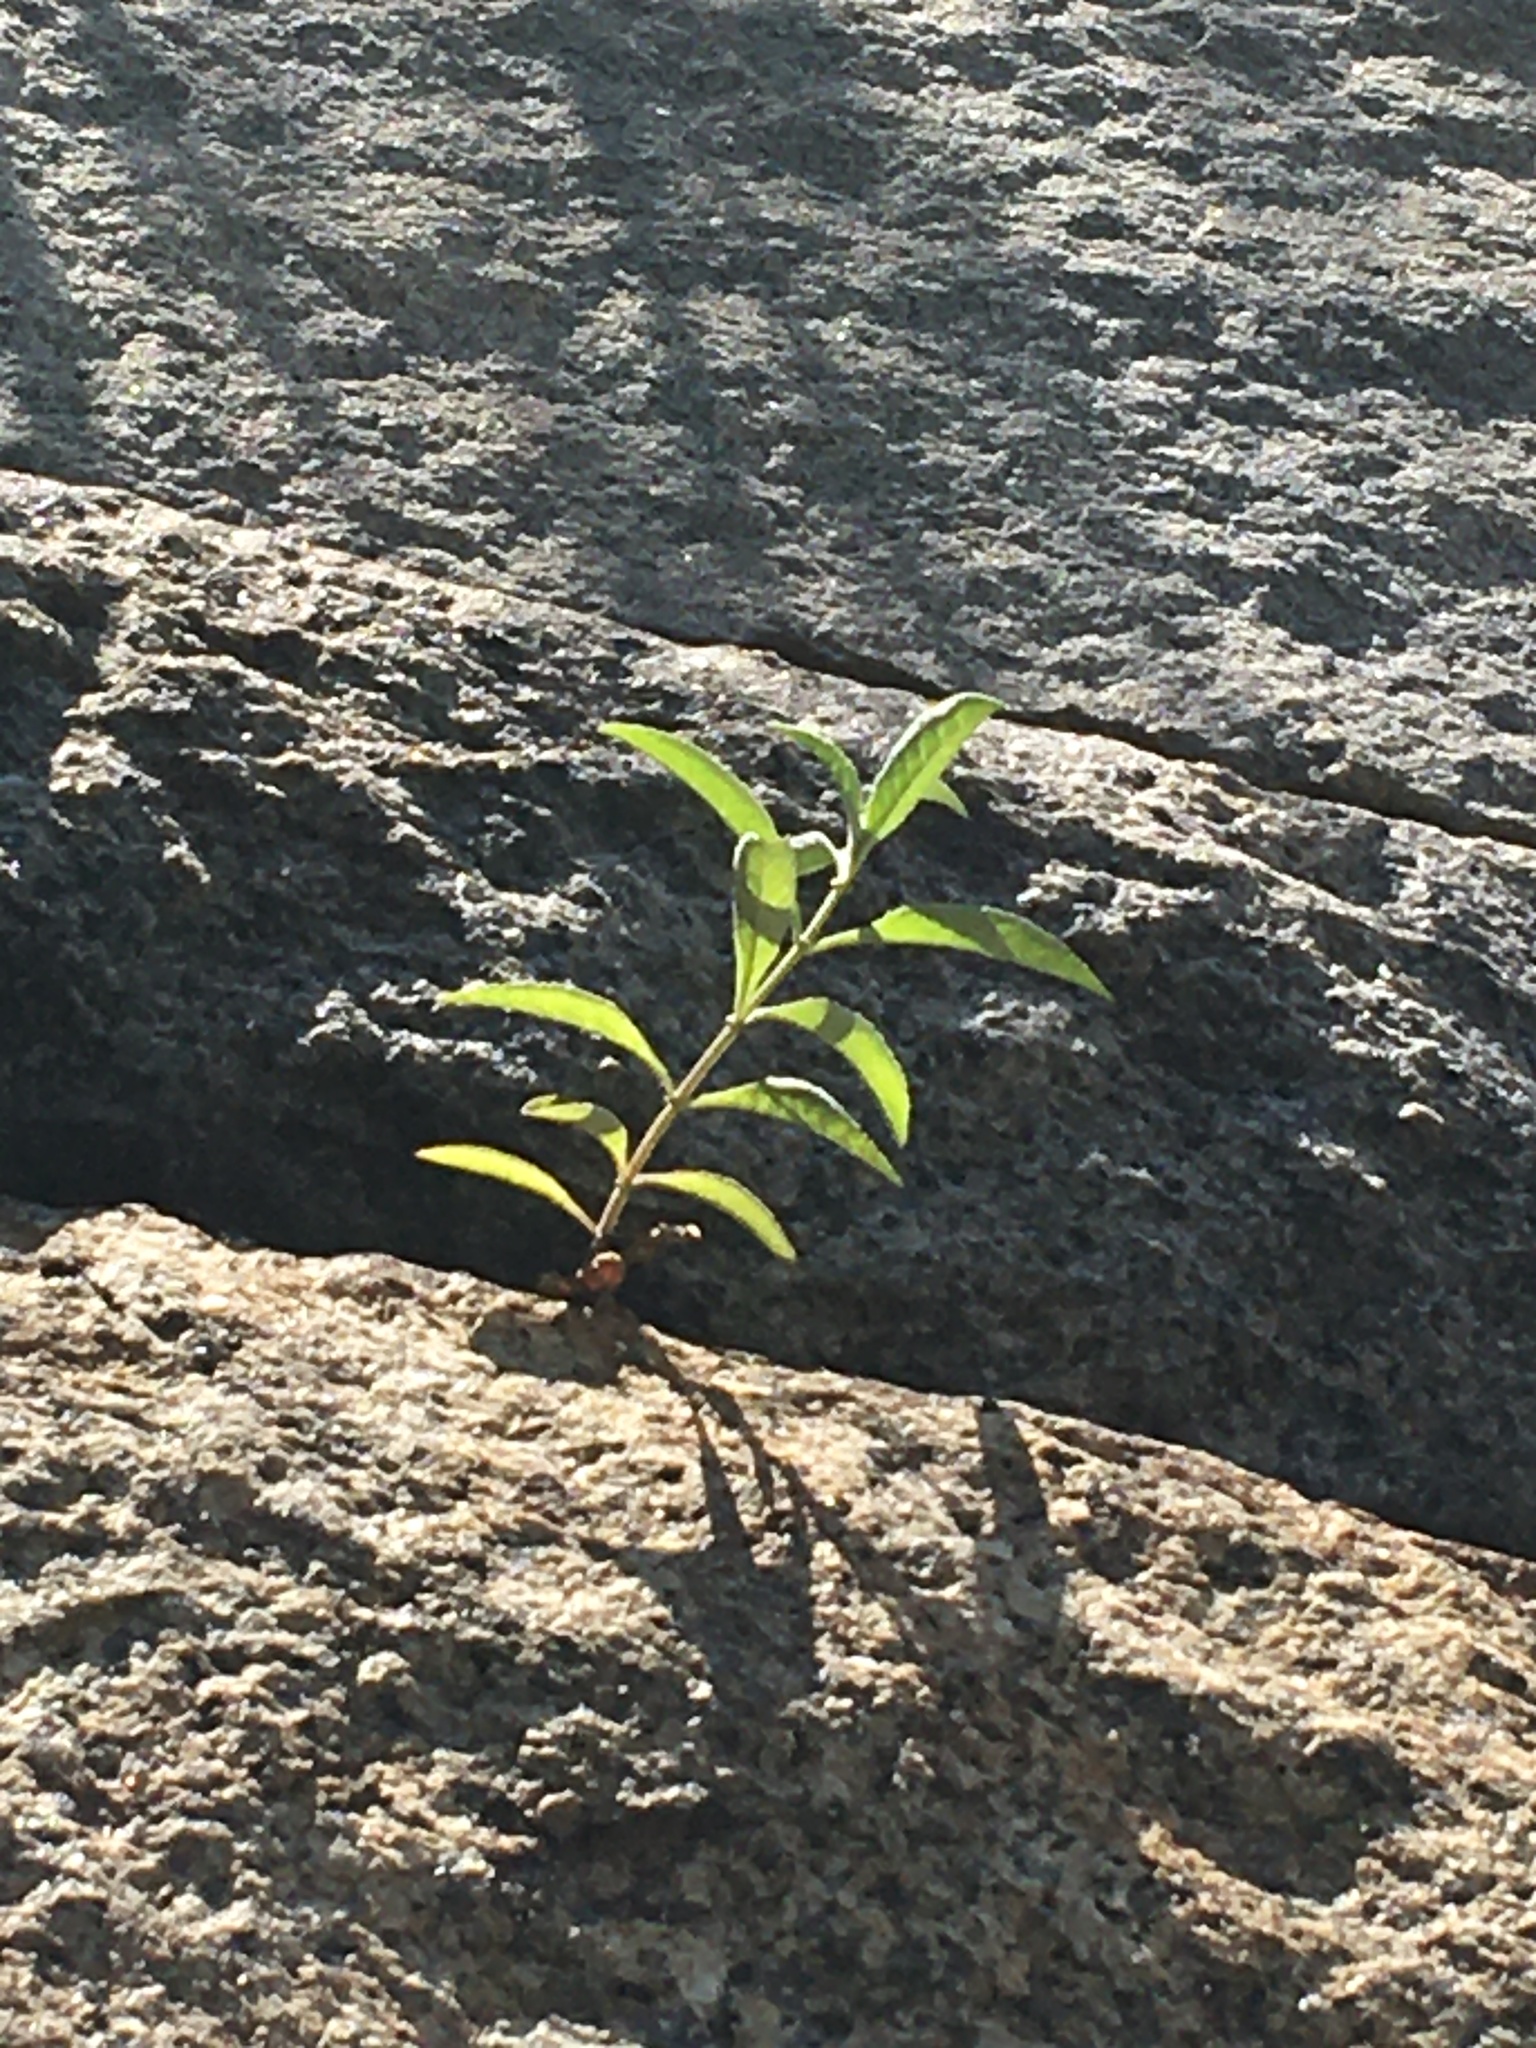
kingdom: Plantae
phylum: Tracheophyta
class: Magnoliopsida
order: Lamiales
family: Scrophulariaceae
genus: Buddleja
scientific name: Buddleja davidii
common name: Butterfly-bush
